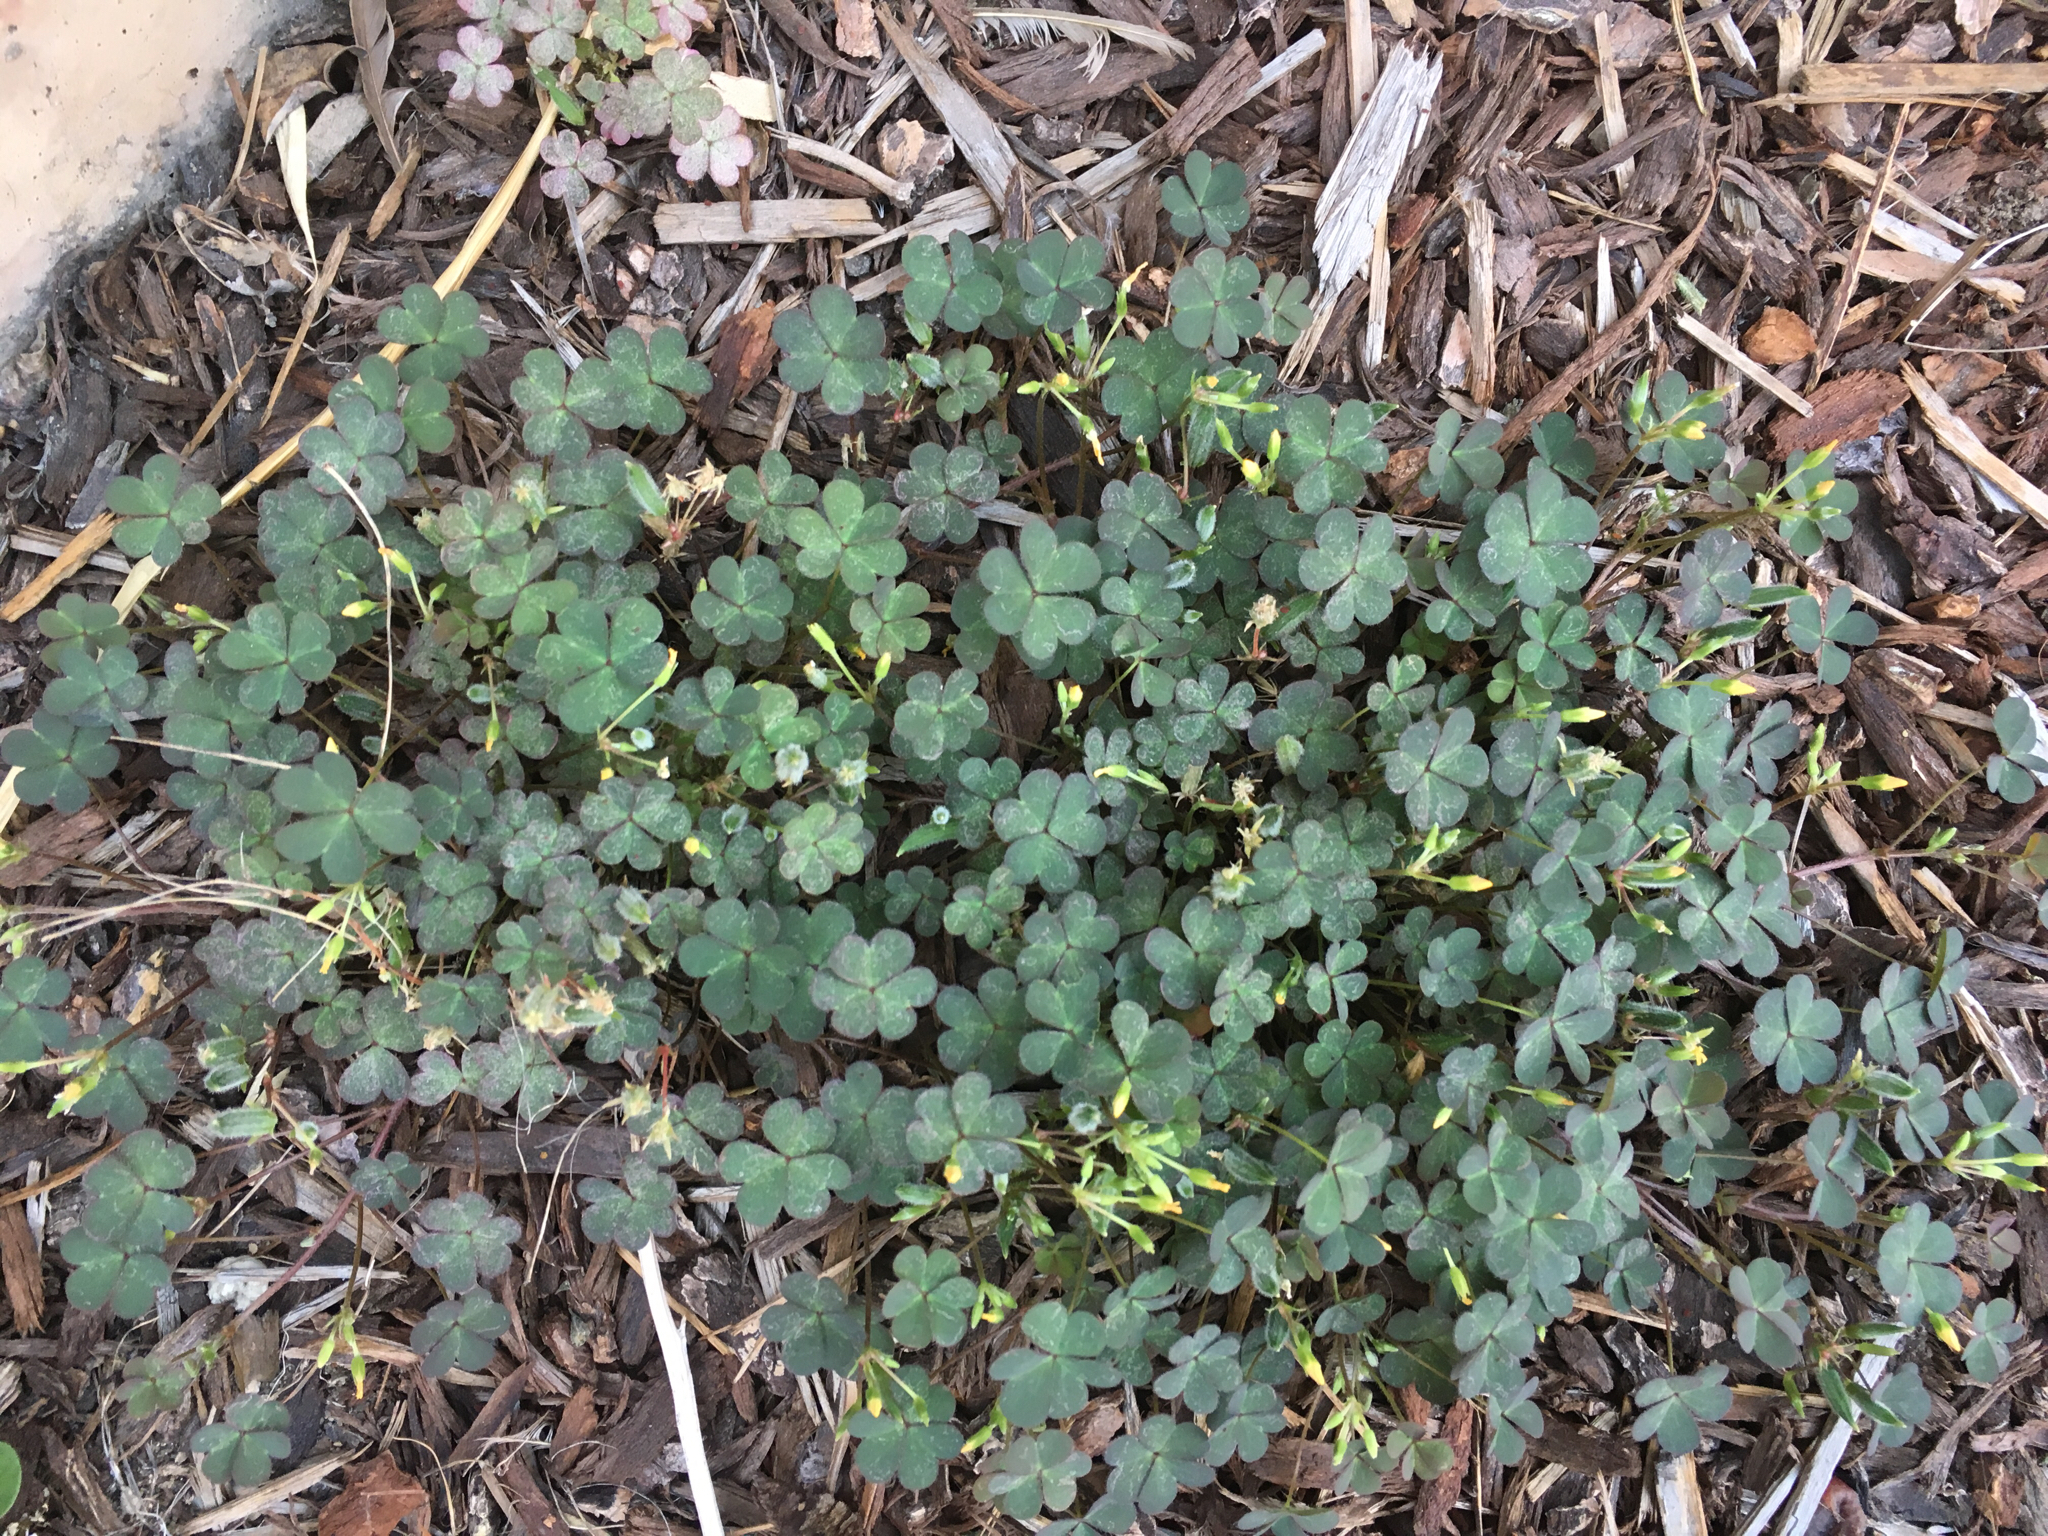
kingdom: Plantae
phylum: Tracheophyta
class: Magnoliopsida
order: Oxalidales
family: Oxalidaceae
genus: Oxalis
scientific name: Oxalis corniculata
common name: Procumbent yellow-sorrel
